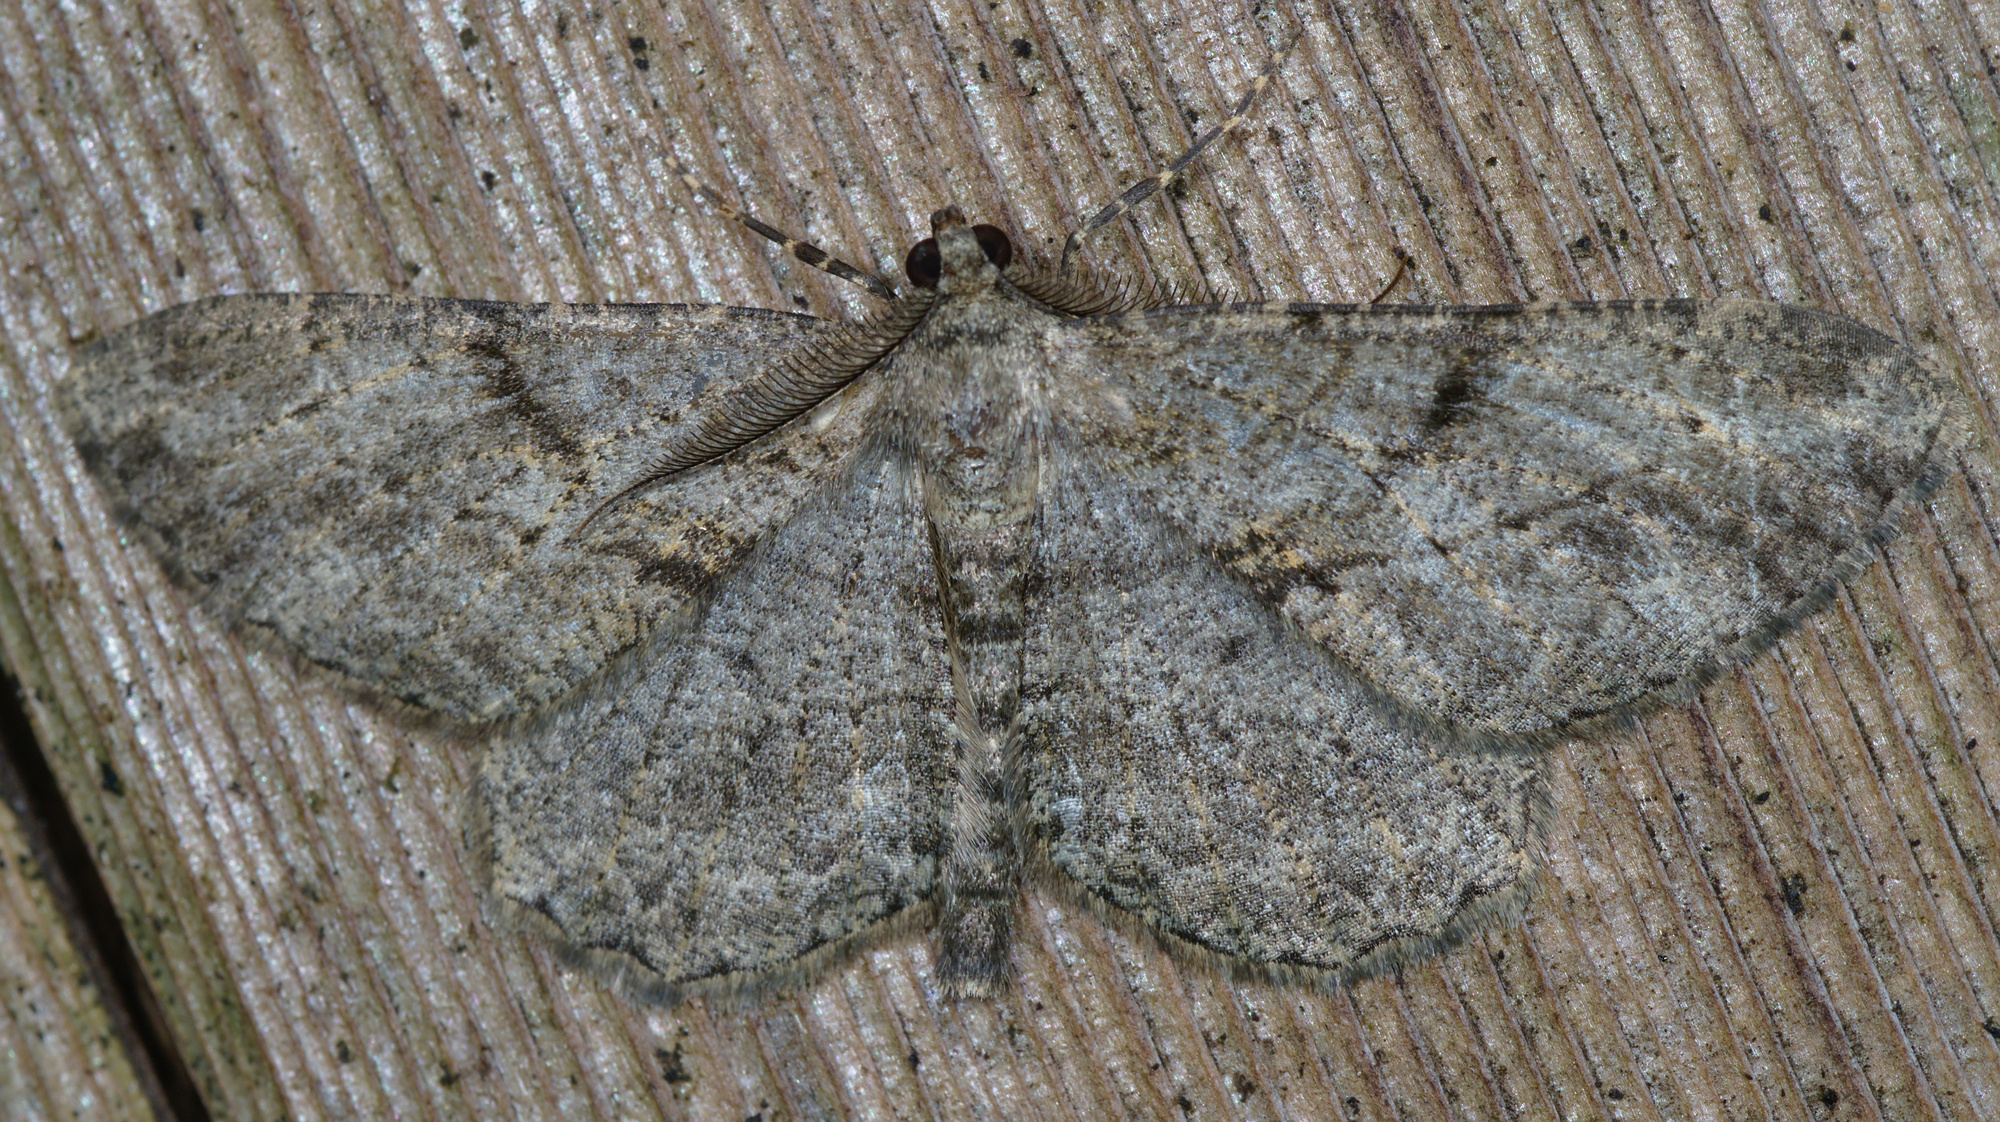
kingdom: Animalia
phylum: Arthropoda
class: Insecta
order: Lepidoptera
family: Geometridae
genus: Peribatodes
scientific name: Peribatodes rhomboidaria
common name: Willow beauty
